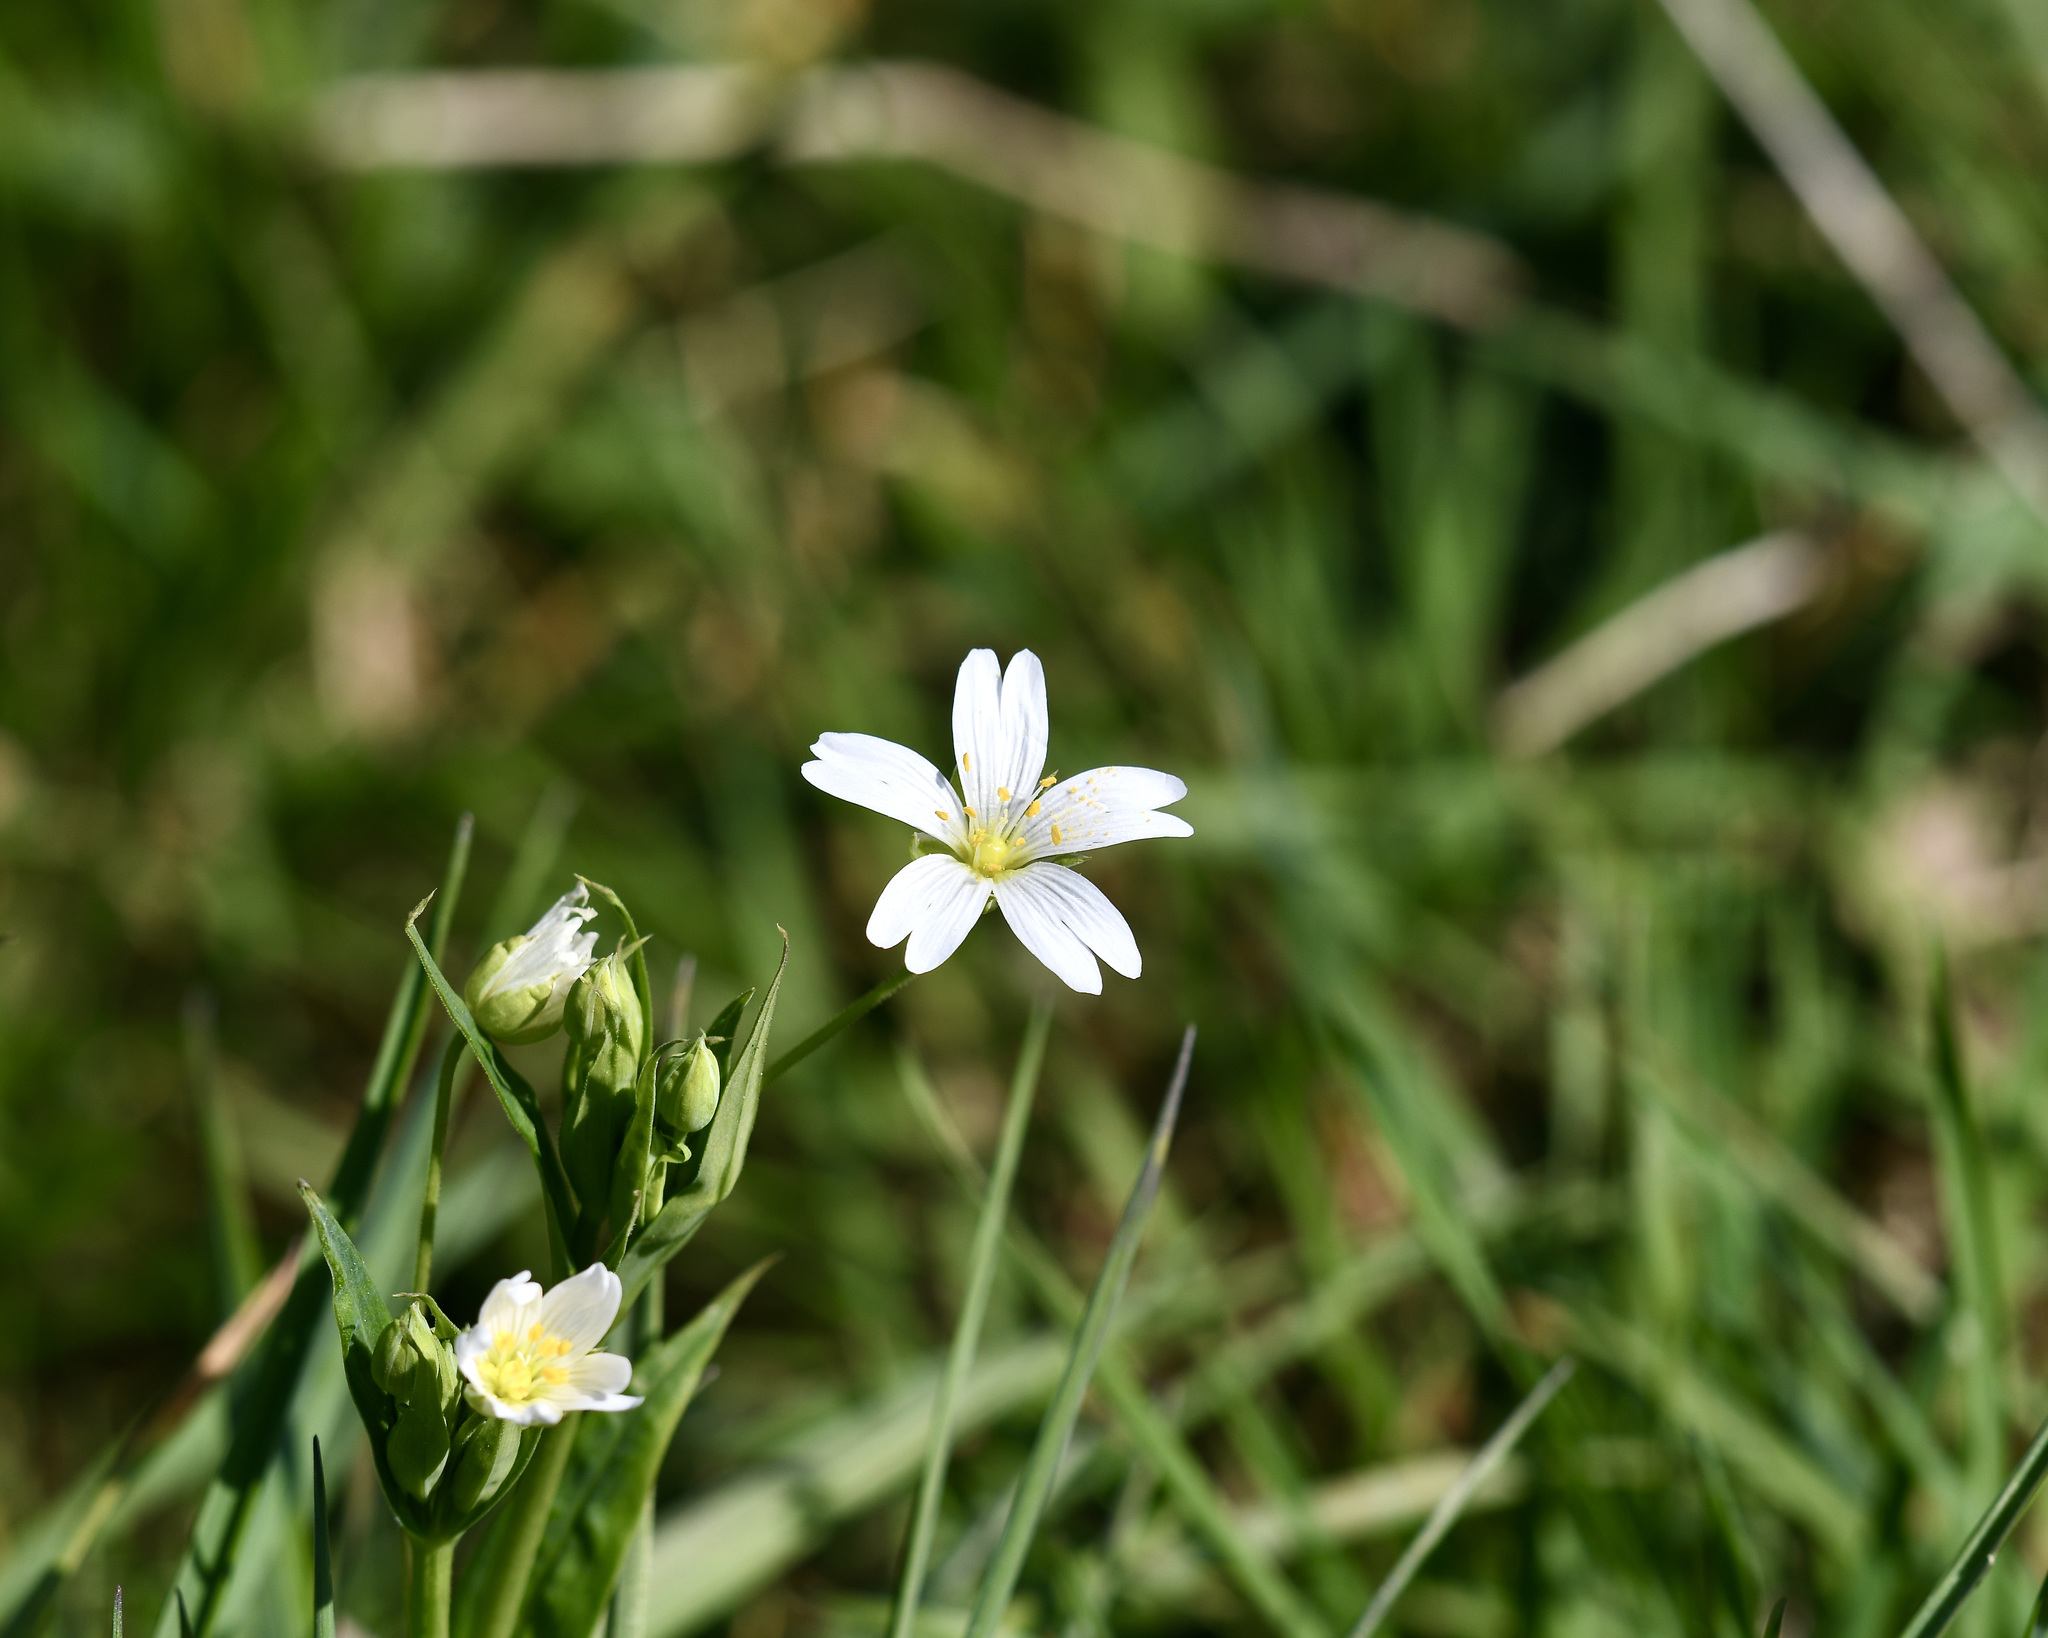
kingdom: Plantae
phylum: Tracheophyta
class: Magnoliopsida
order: Caryophyllales
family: Caryophyllaceae
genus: Rabelera
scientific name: Rabelera holostea
